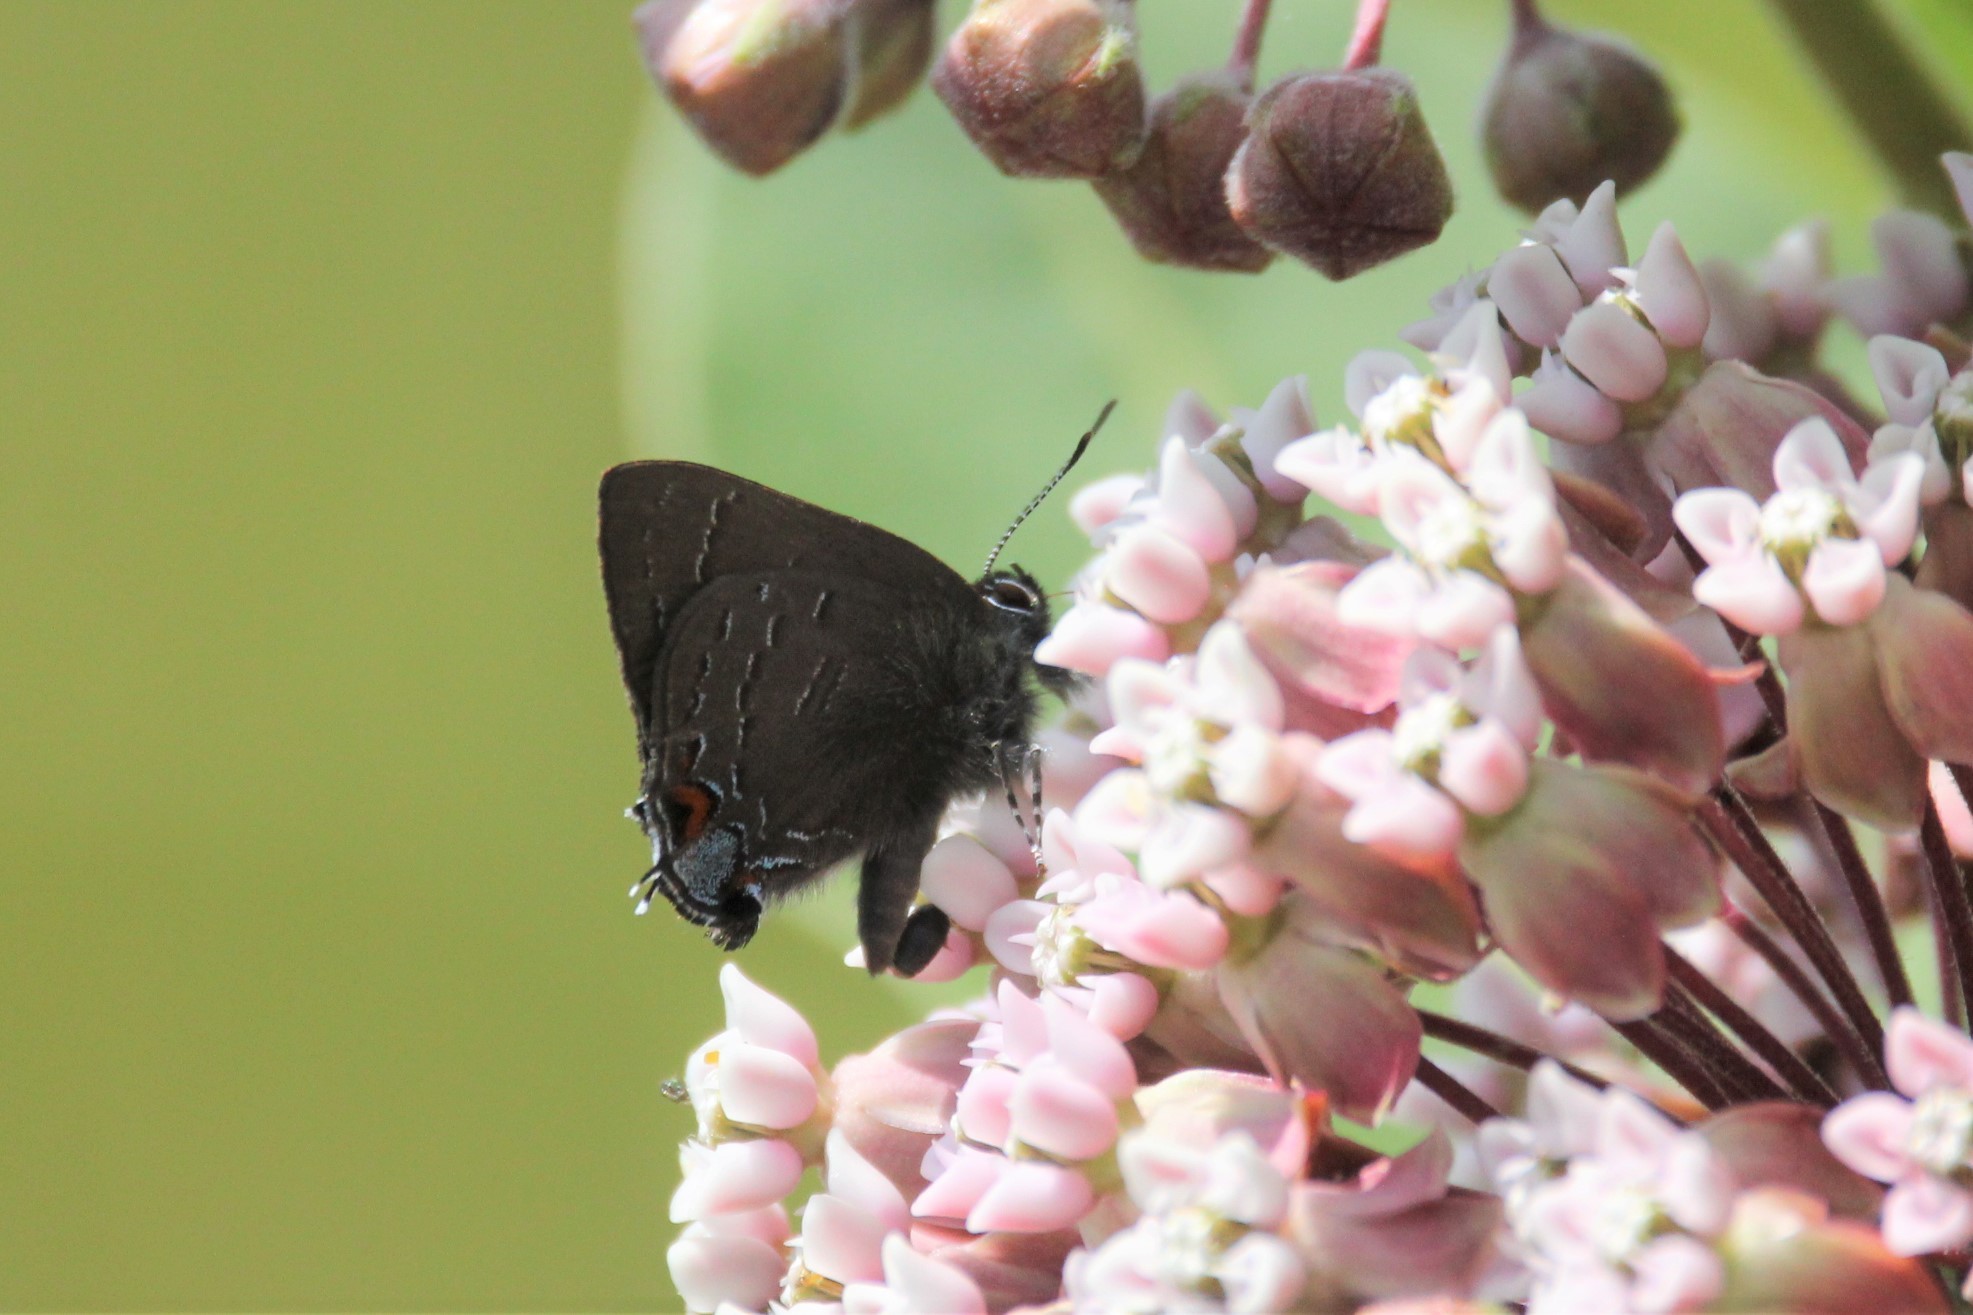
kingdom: Animalia
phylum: Arthropoda
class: Insecta
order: Lepidoptera
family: Lycaenidae
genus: Satyrium
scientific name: Satyrium calanus
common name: Banded hairstreak
